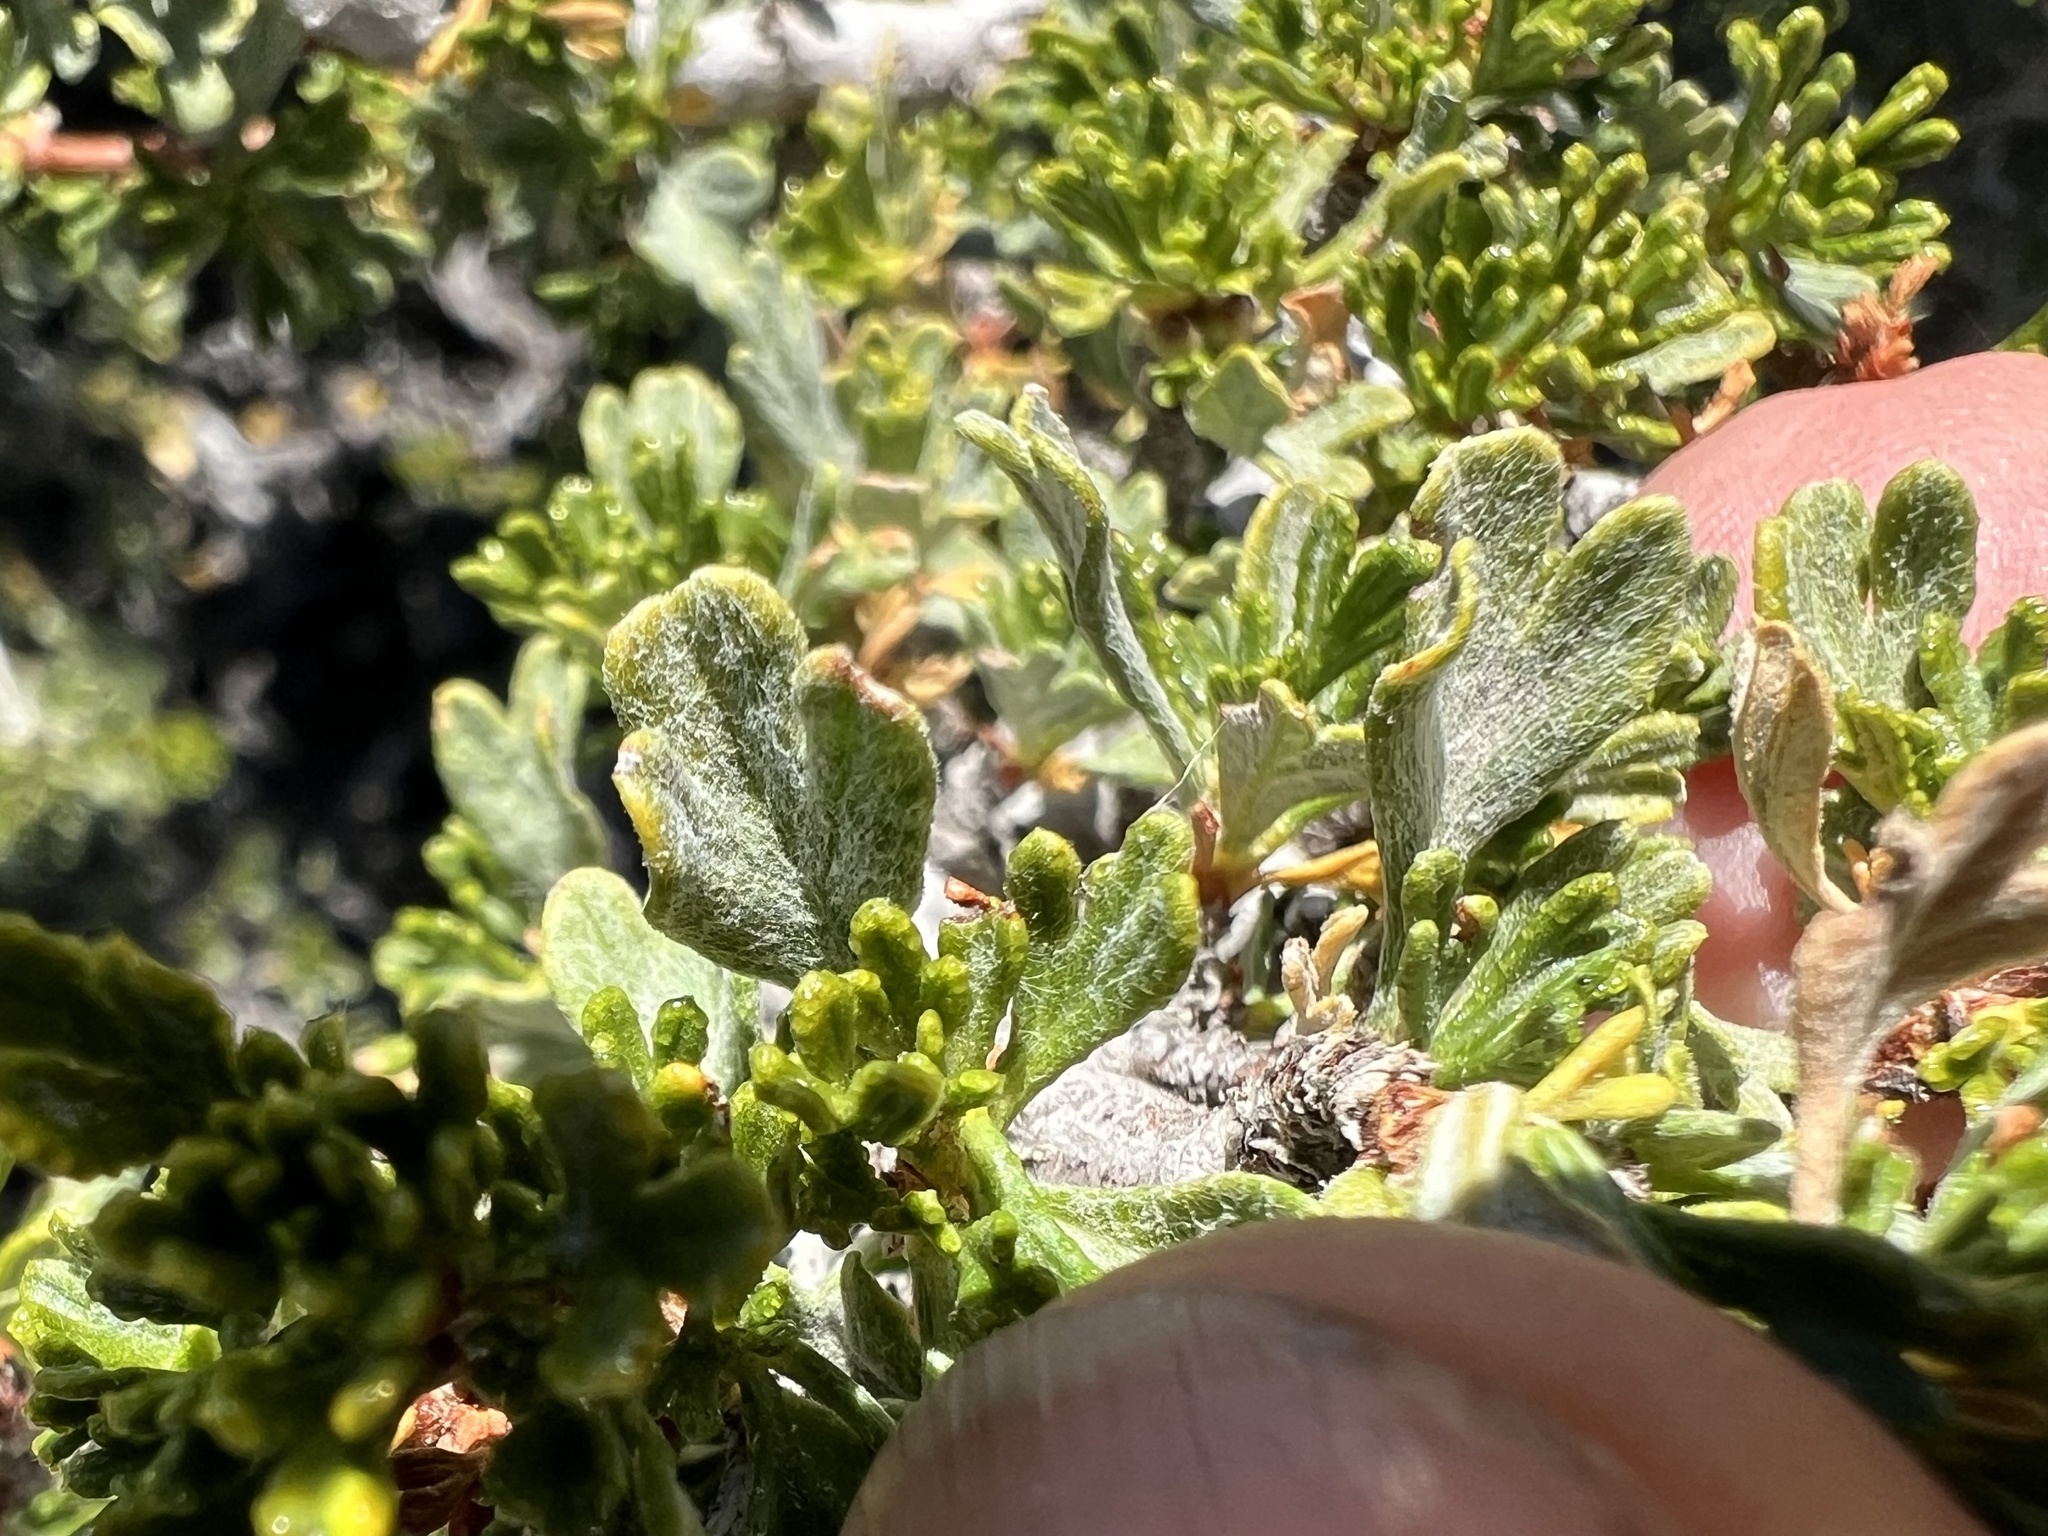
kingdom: Plantae
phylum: Tracheophyta
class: Magnoliopsida
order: Rosales
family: Rosaceae
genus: Purshia
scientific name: Purshia tridentata
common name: Antelope bitterbrush
